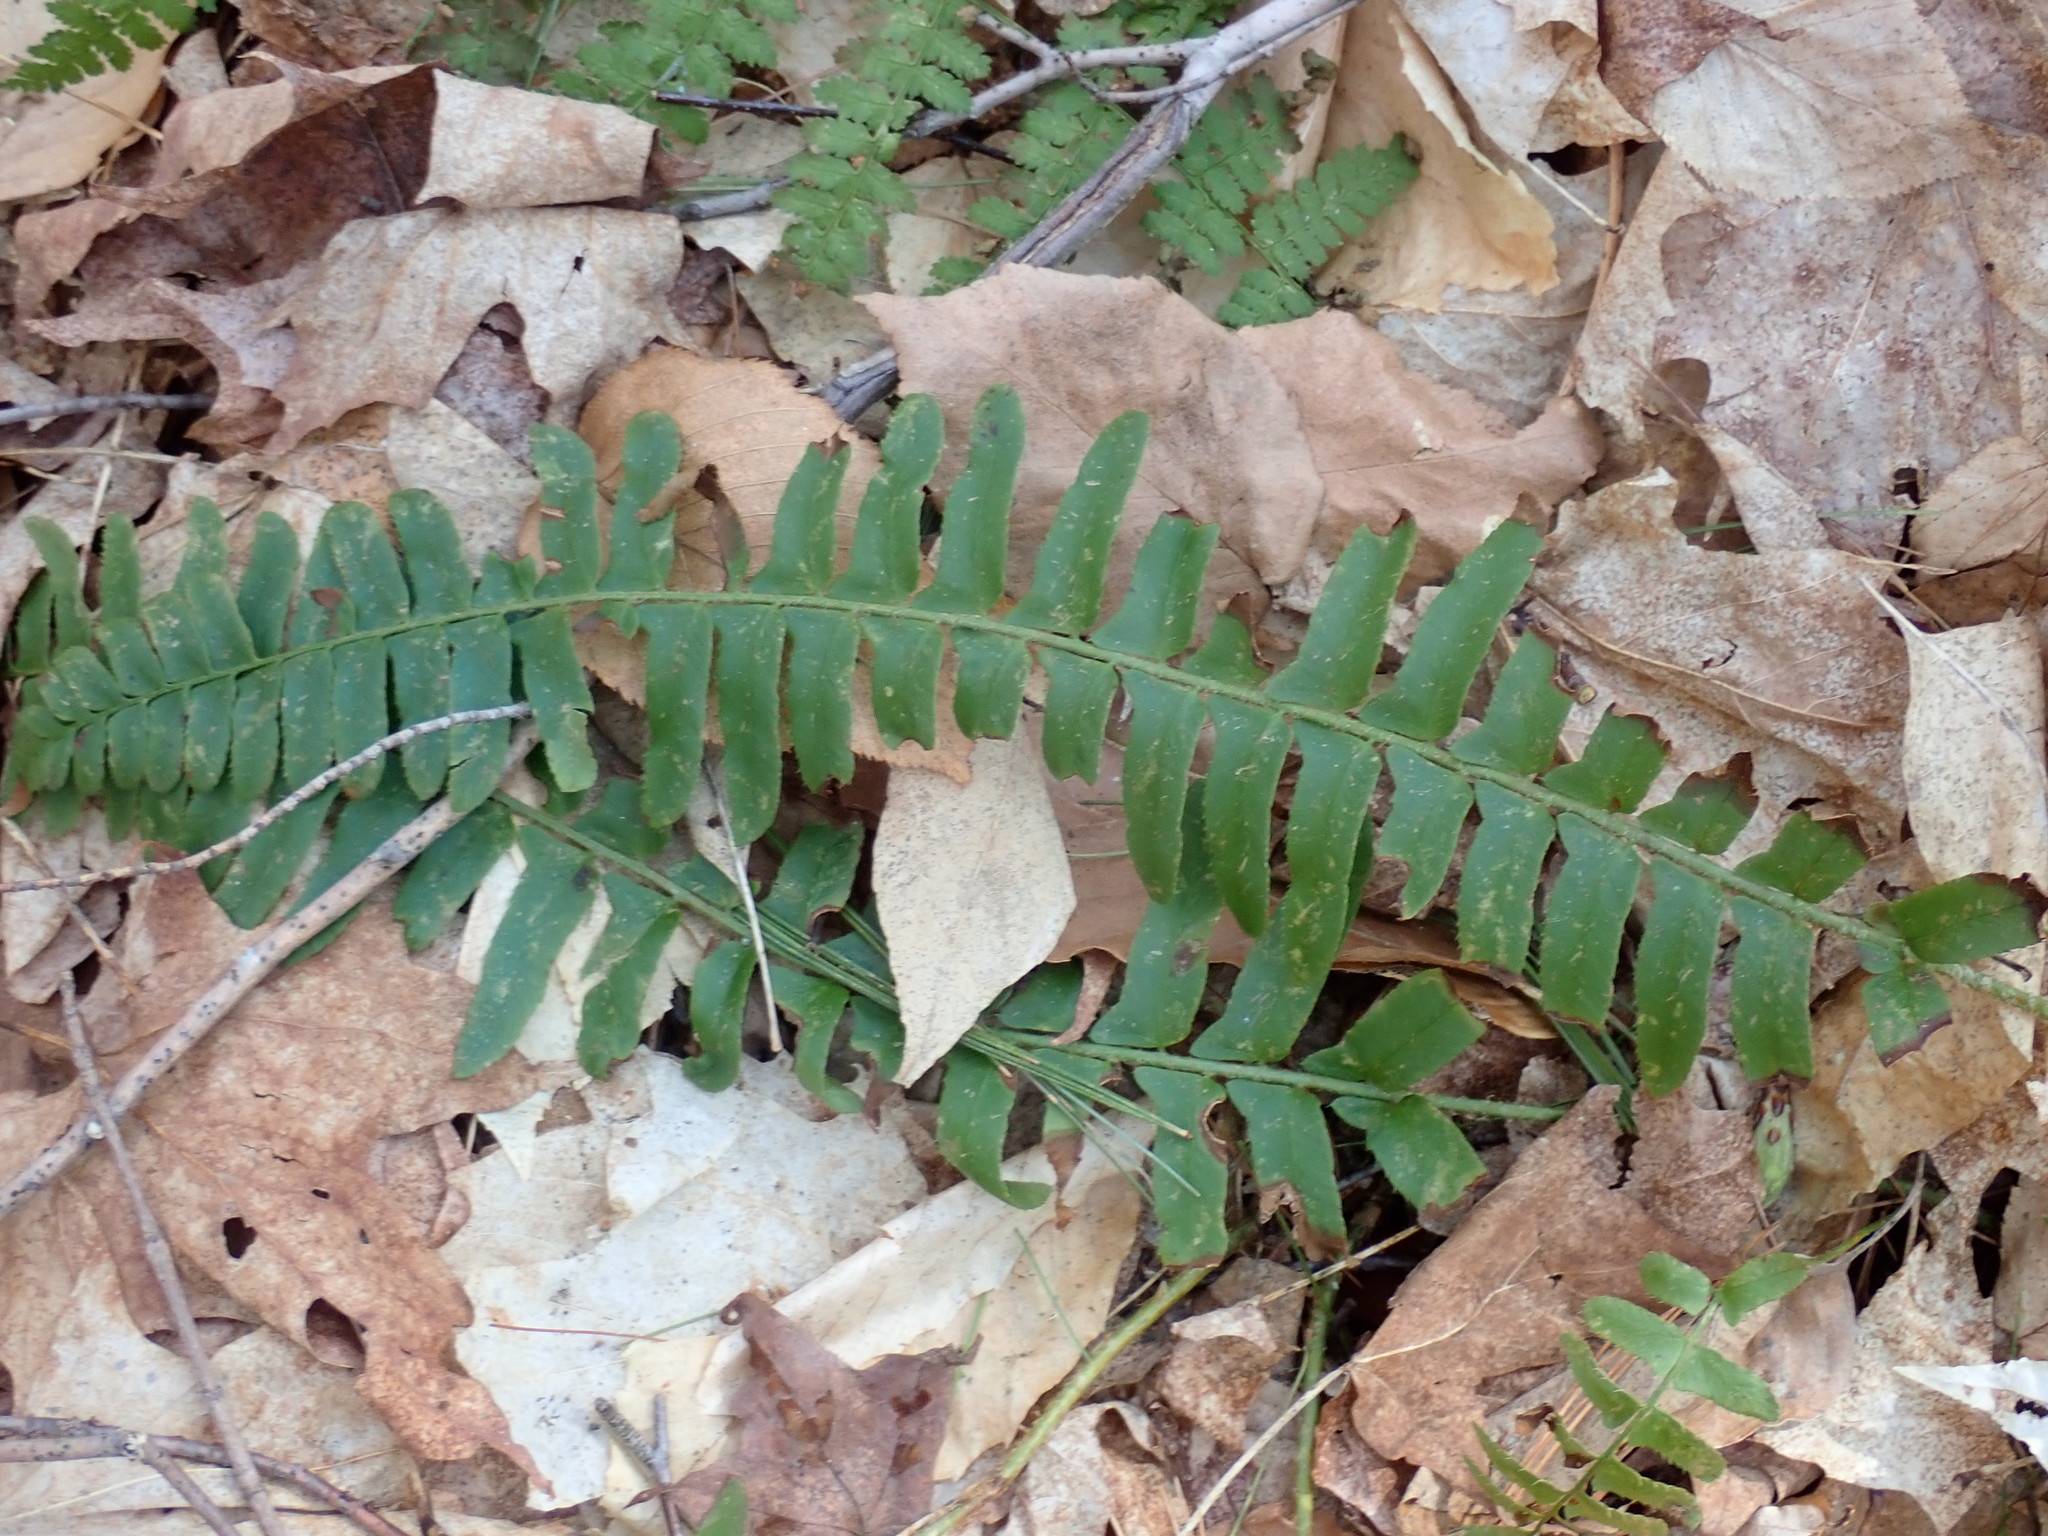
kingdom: Plantae
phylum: Tracheophyta
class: Polypodiopsida
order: Polypodiales
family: Dryopteridaceae
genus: Polystichum
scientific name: Polystichum acrostichoides
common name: Christmas fern
